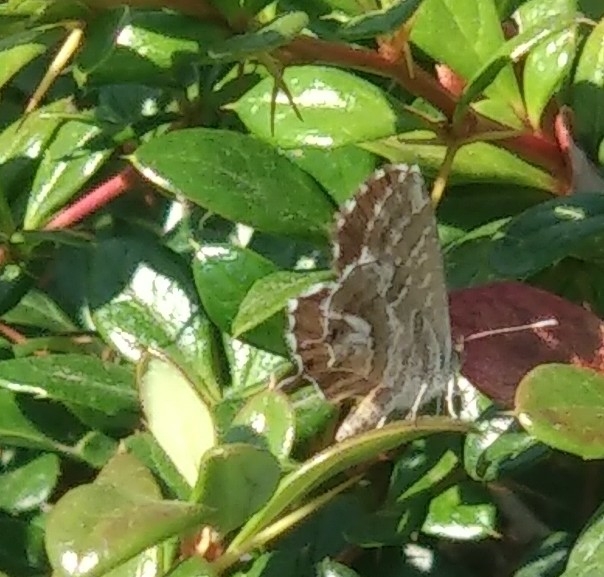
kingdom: Animalia
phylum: Arthropoda
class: Insecta
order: Lepidoptera
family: Lycaenidae
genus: Cacyreus
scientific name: Cacyreus marshalli
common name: Geranium bronze
